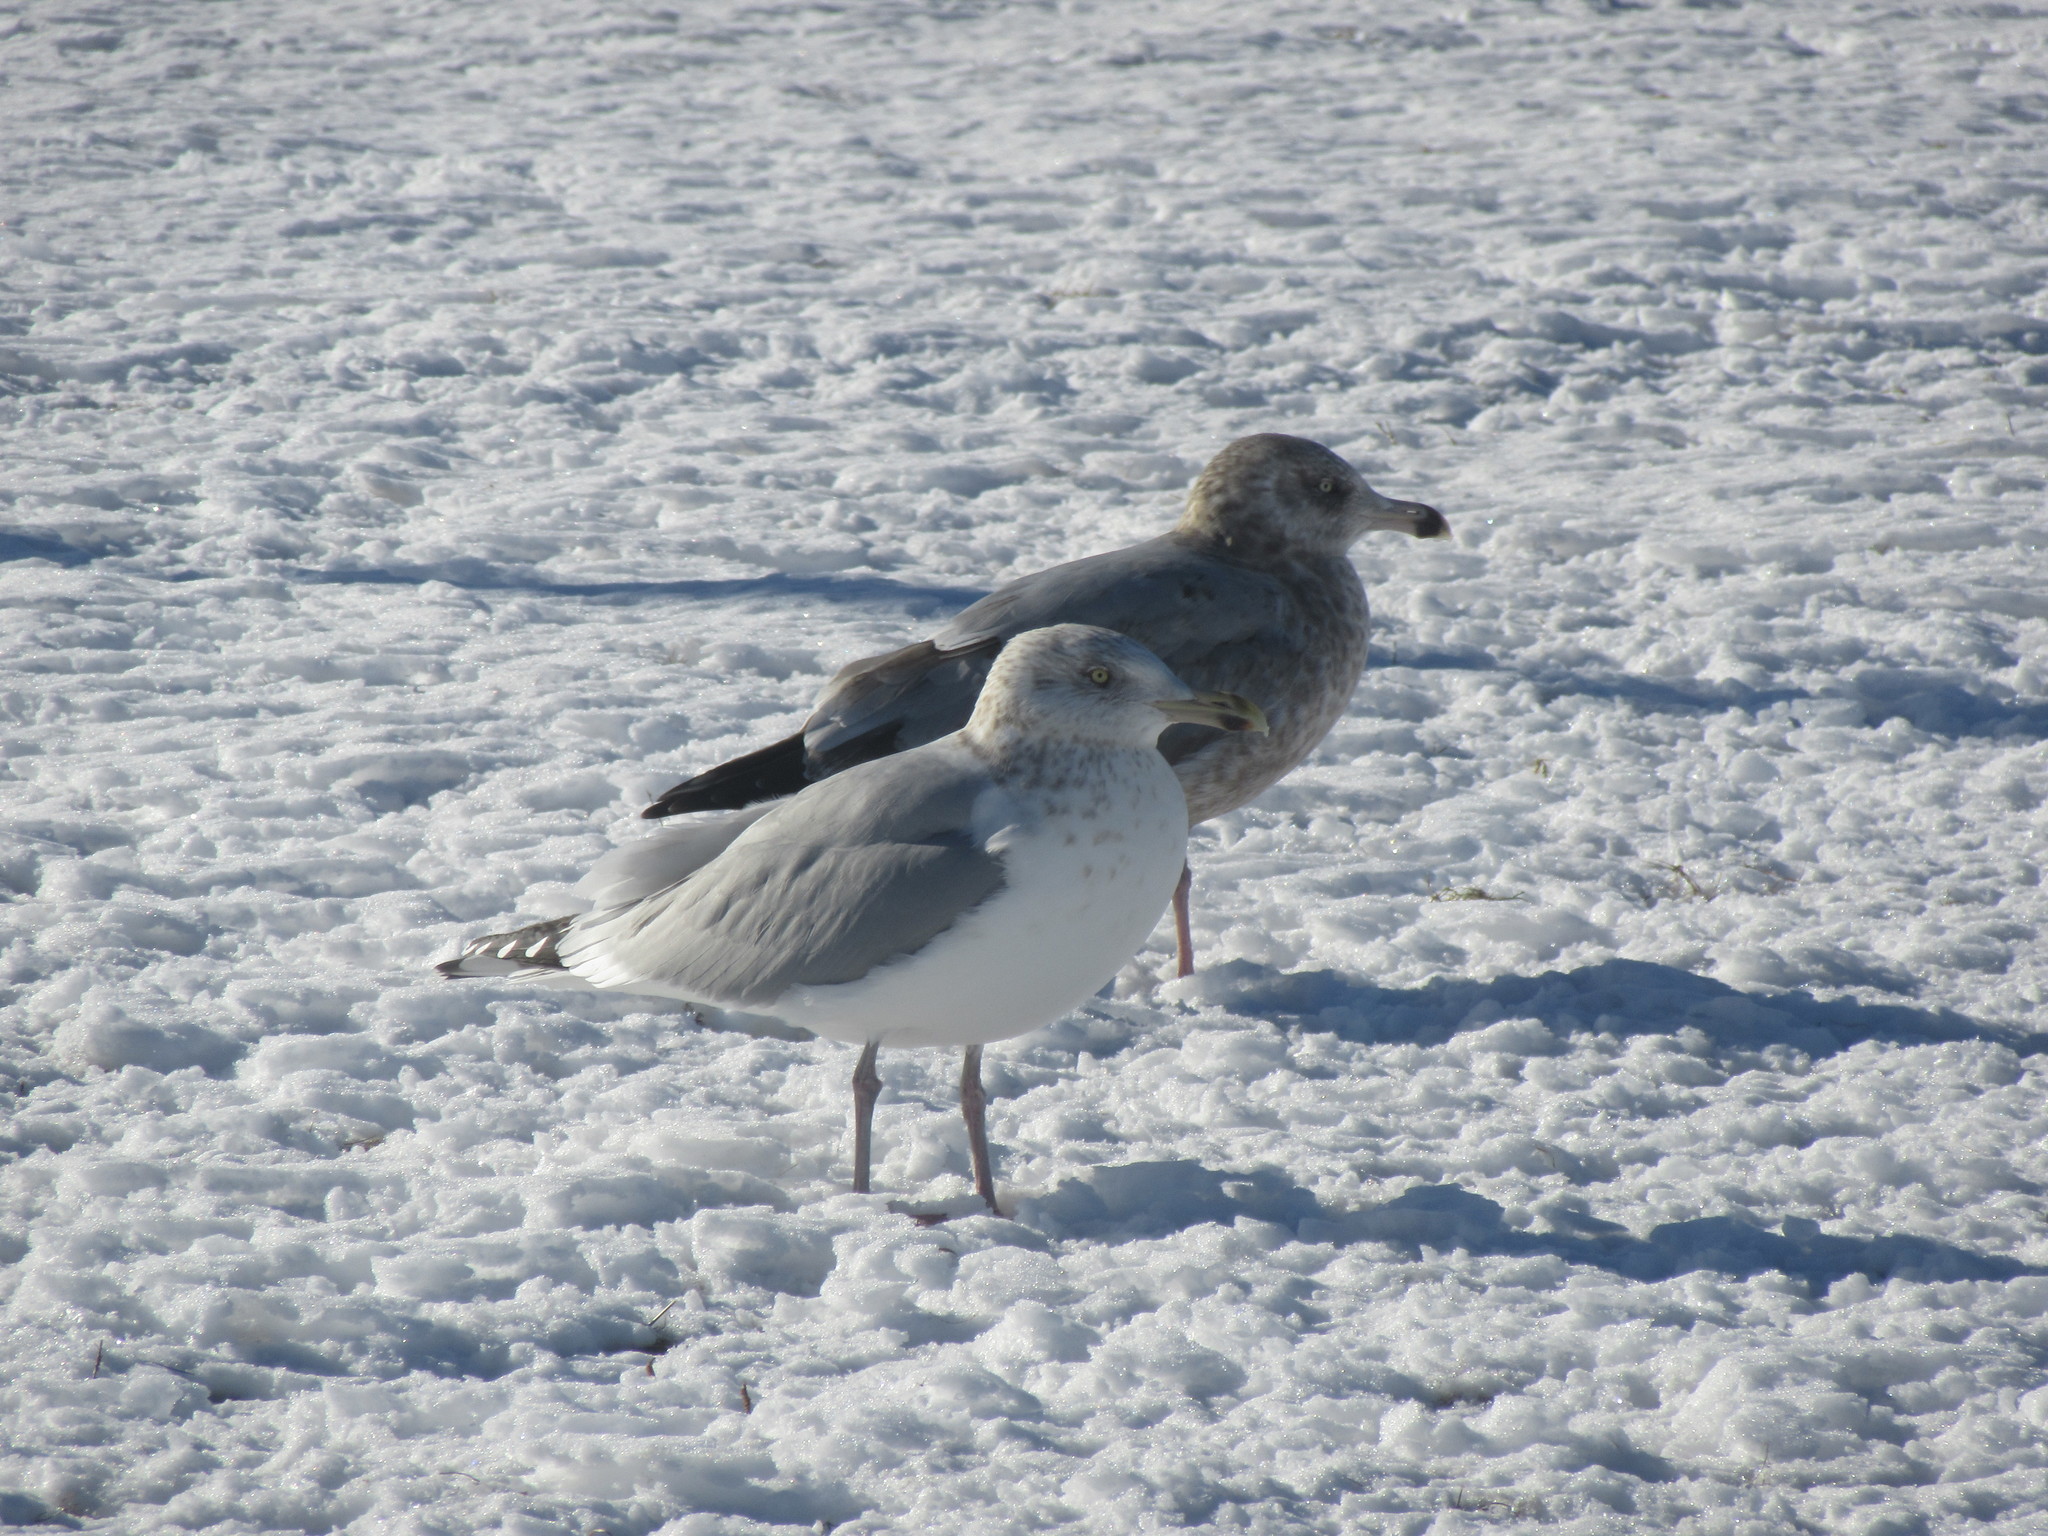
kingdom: Animalia
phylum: Chordata
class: Aves
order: Charadriiformes
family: Laridae
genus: Larus
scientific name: Larus argentatus
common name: Herring gull
